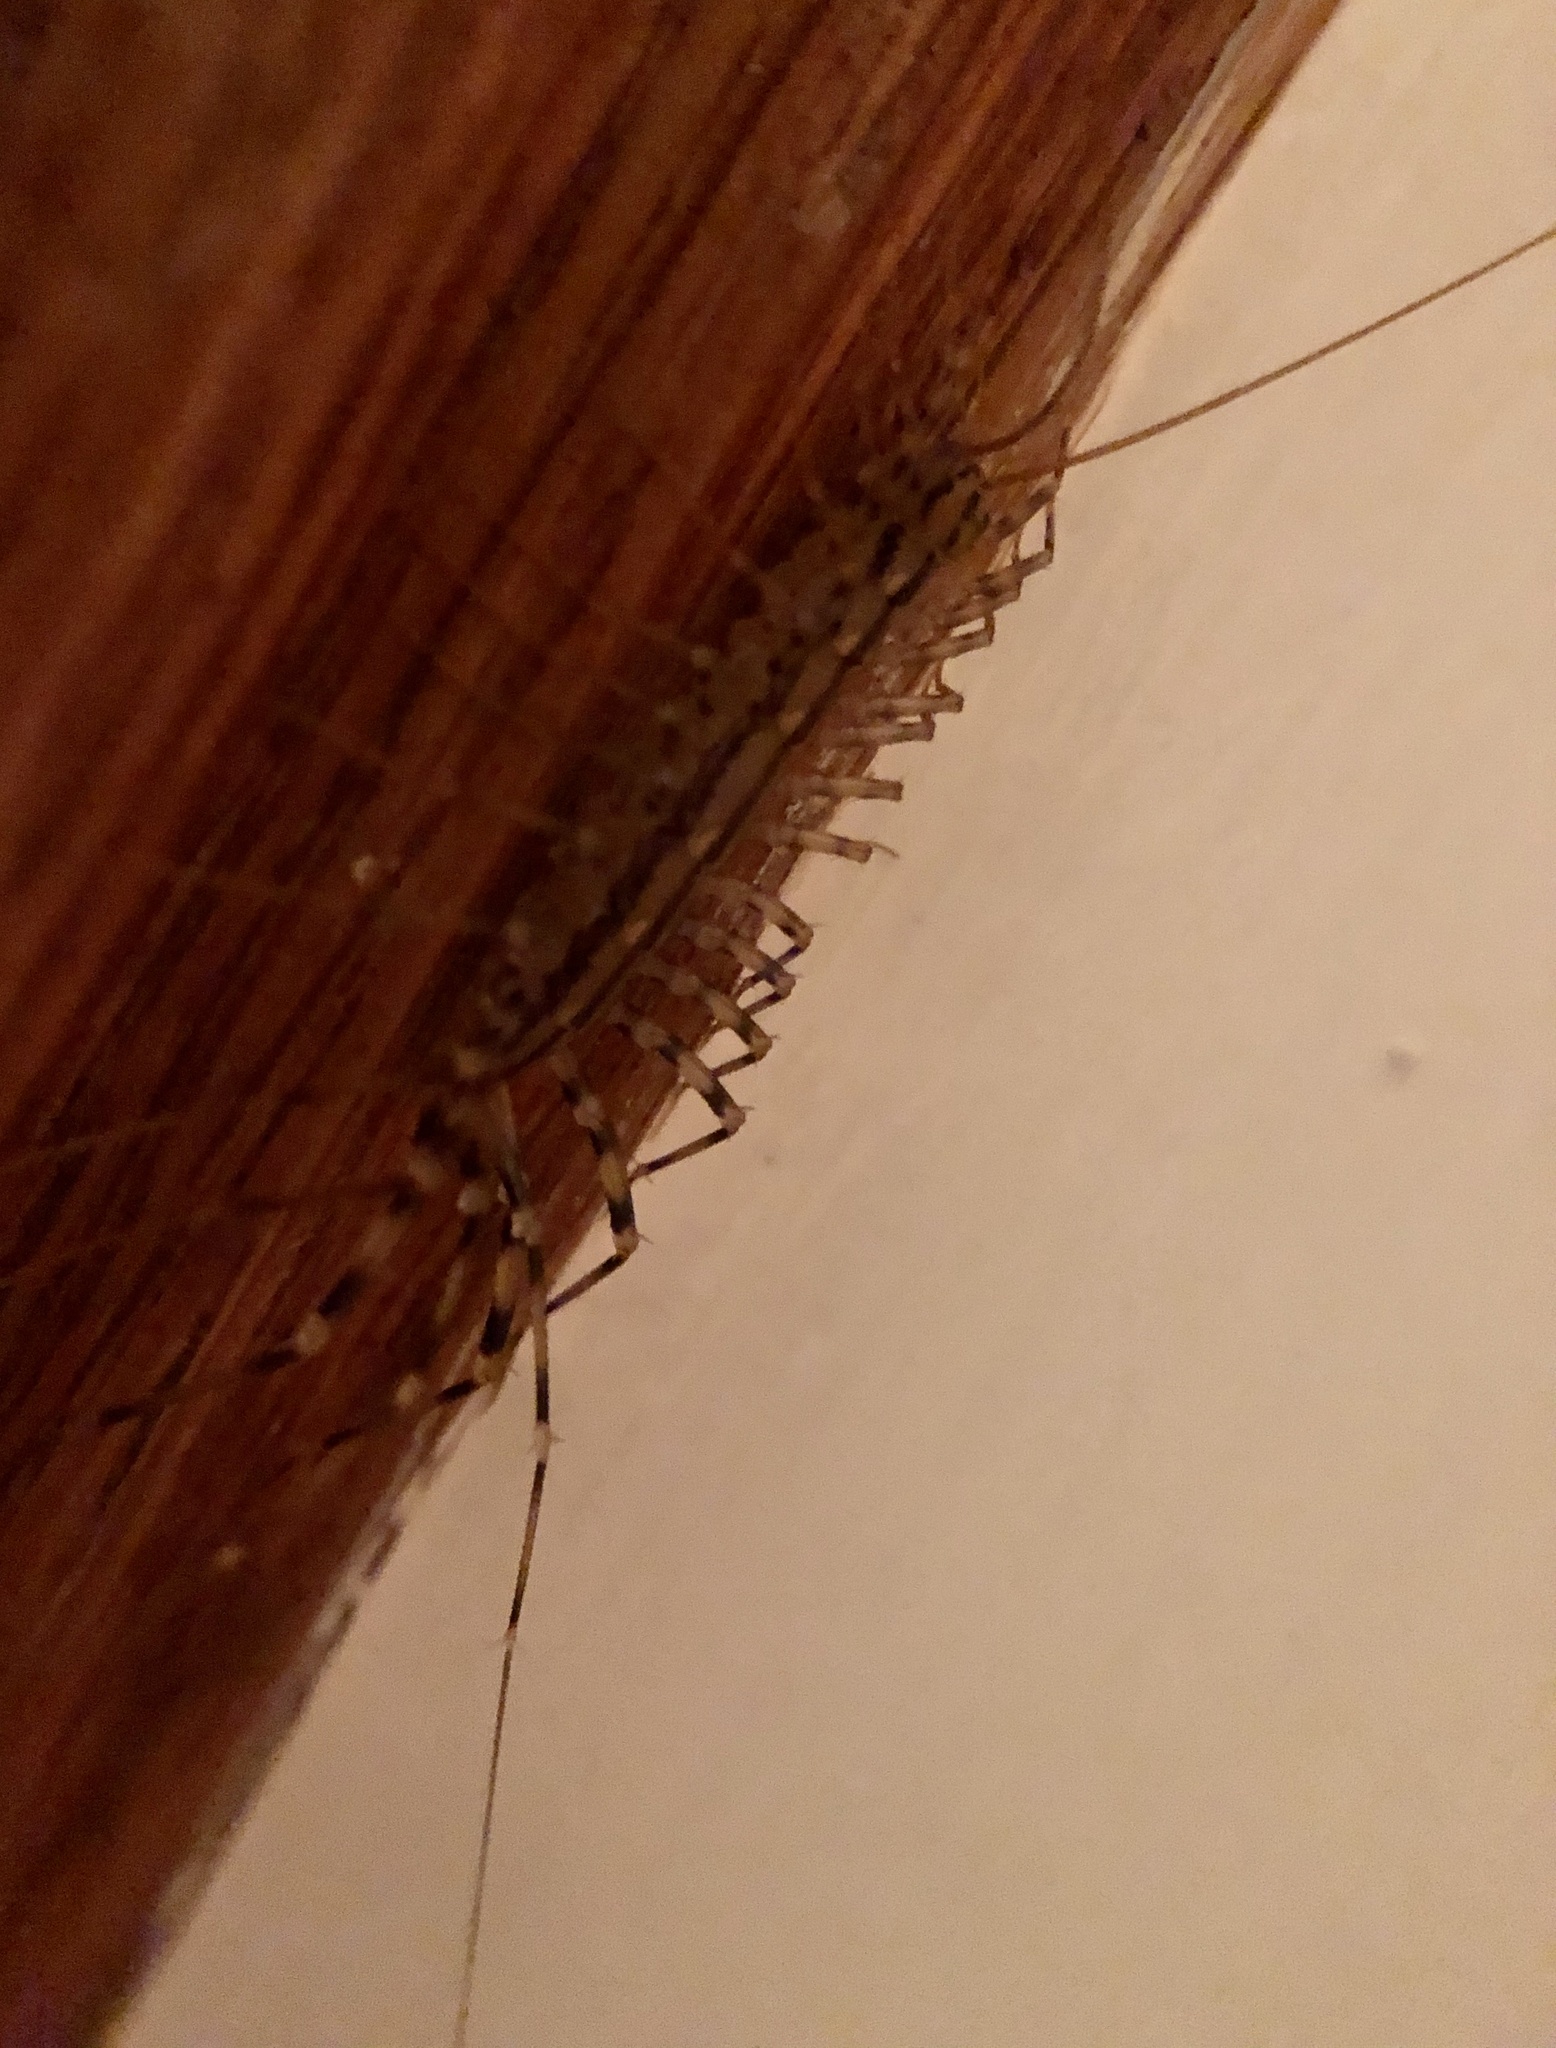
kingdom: Animalia
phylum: Arthropoda
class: Chilopoda
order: Scutigeromorpha
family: Scutigeridae
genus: Scutigera
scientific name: Scutigera coleoptrata
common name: House centipede
